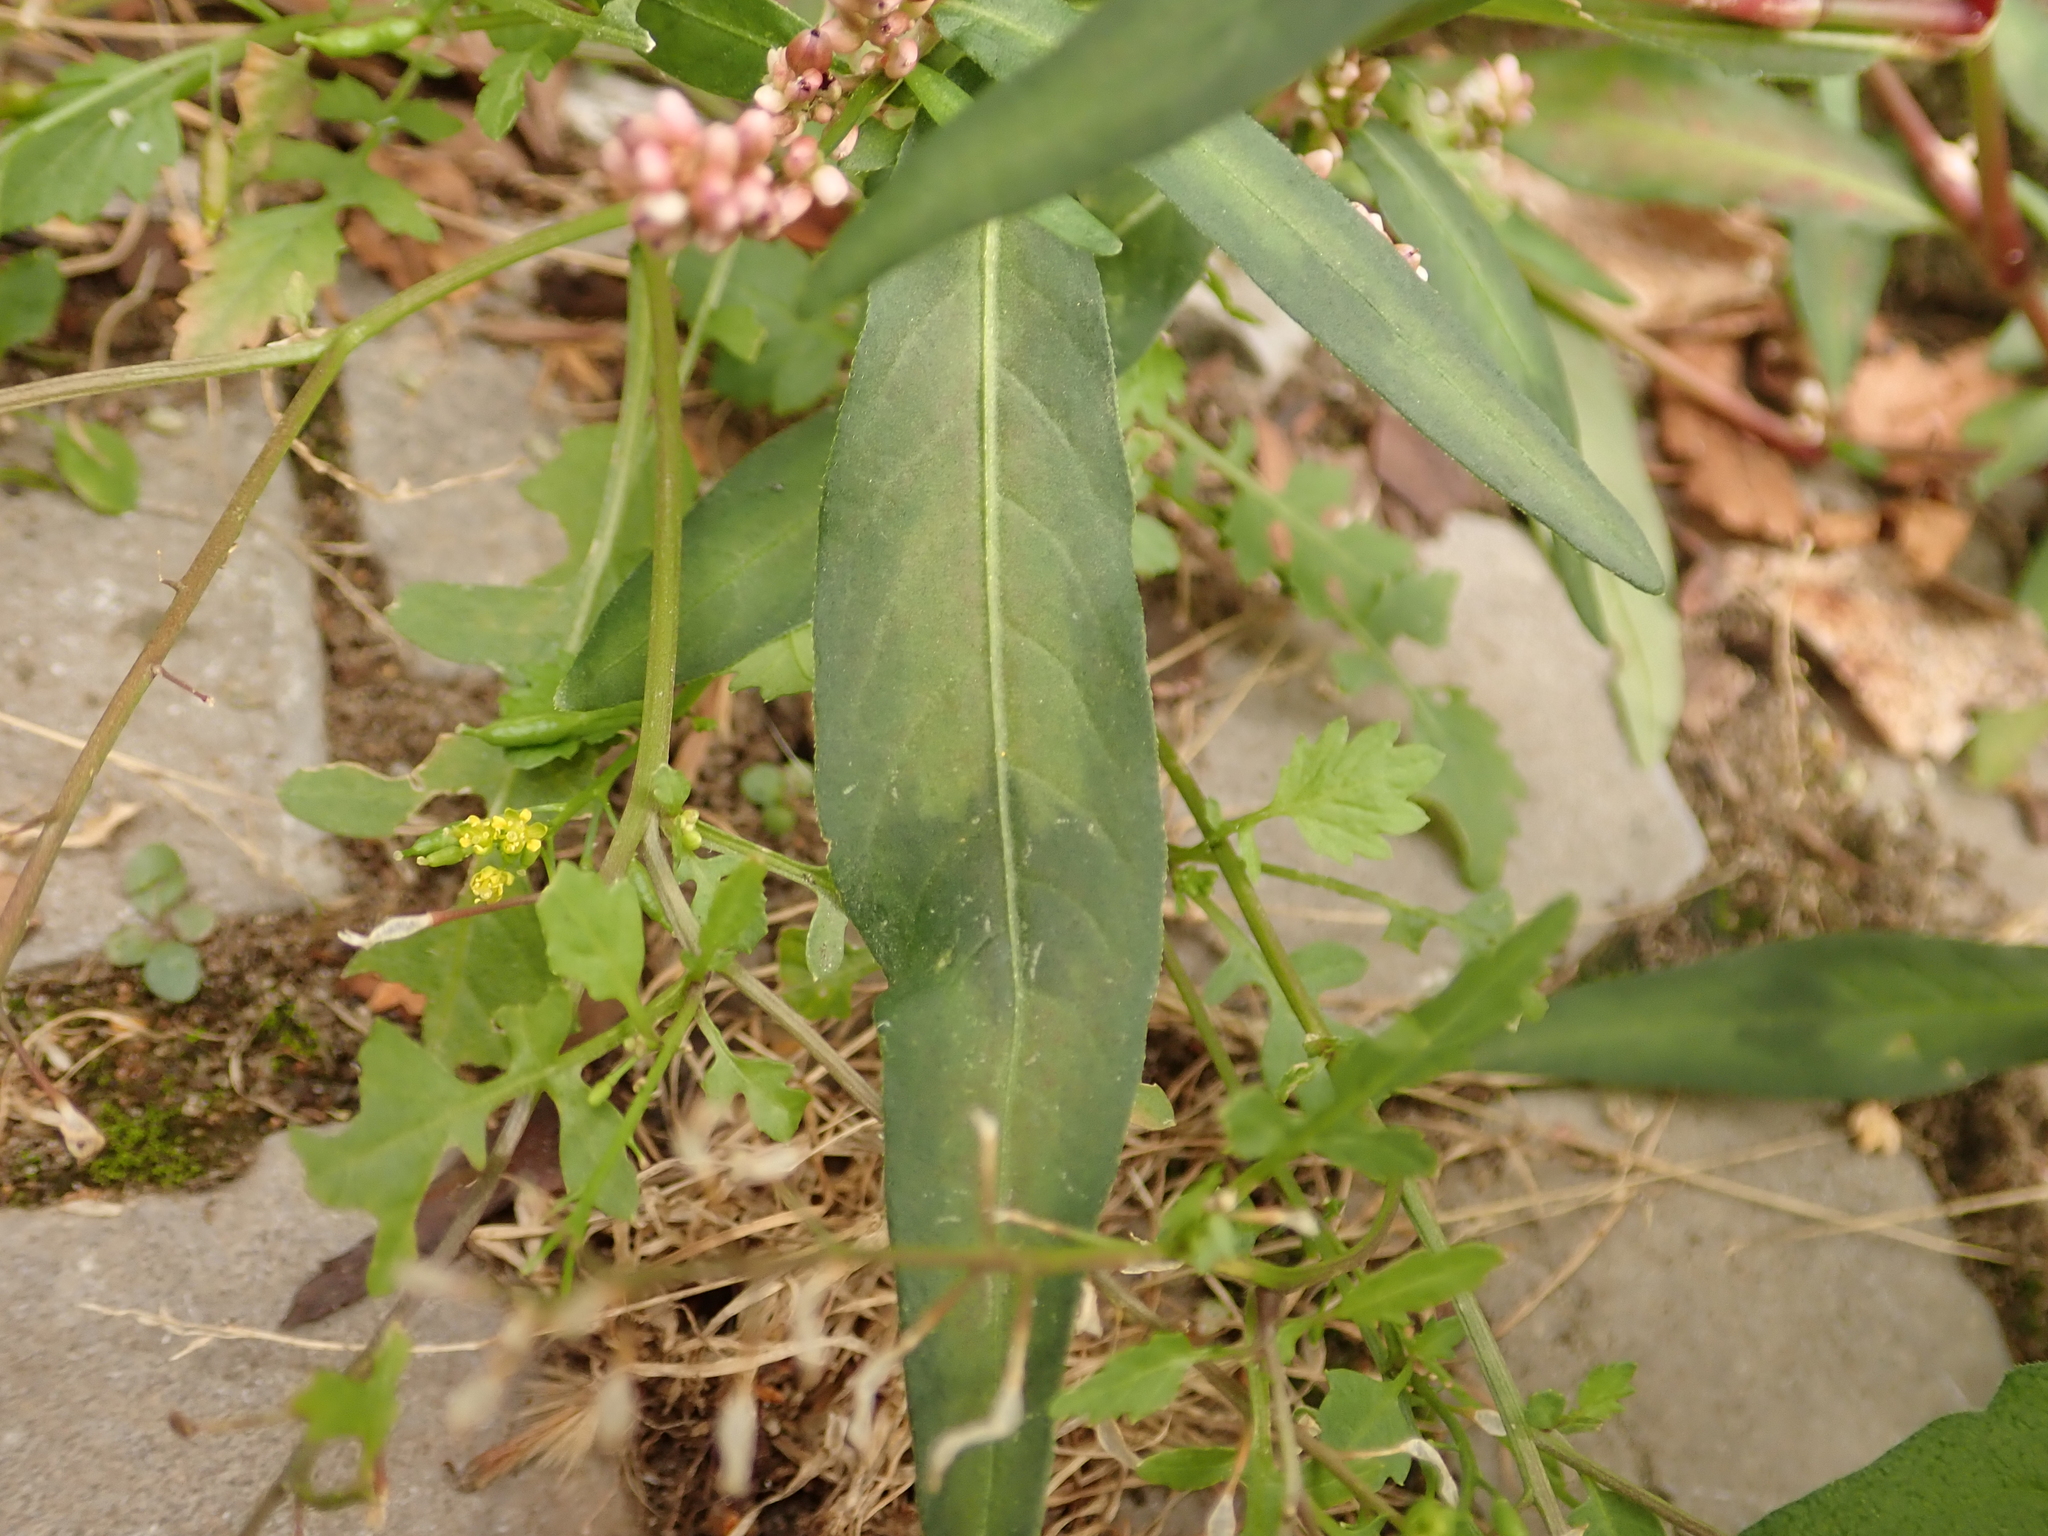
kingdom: Plantae
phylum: Tracheophyta
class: Magnoliopsida
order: Caryophyllales
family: Polygonaceae
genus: Persicaria
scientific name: Persicaria maculosa
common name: Redshank
